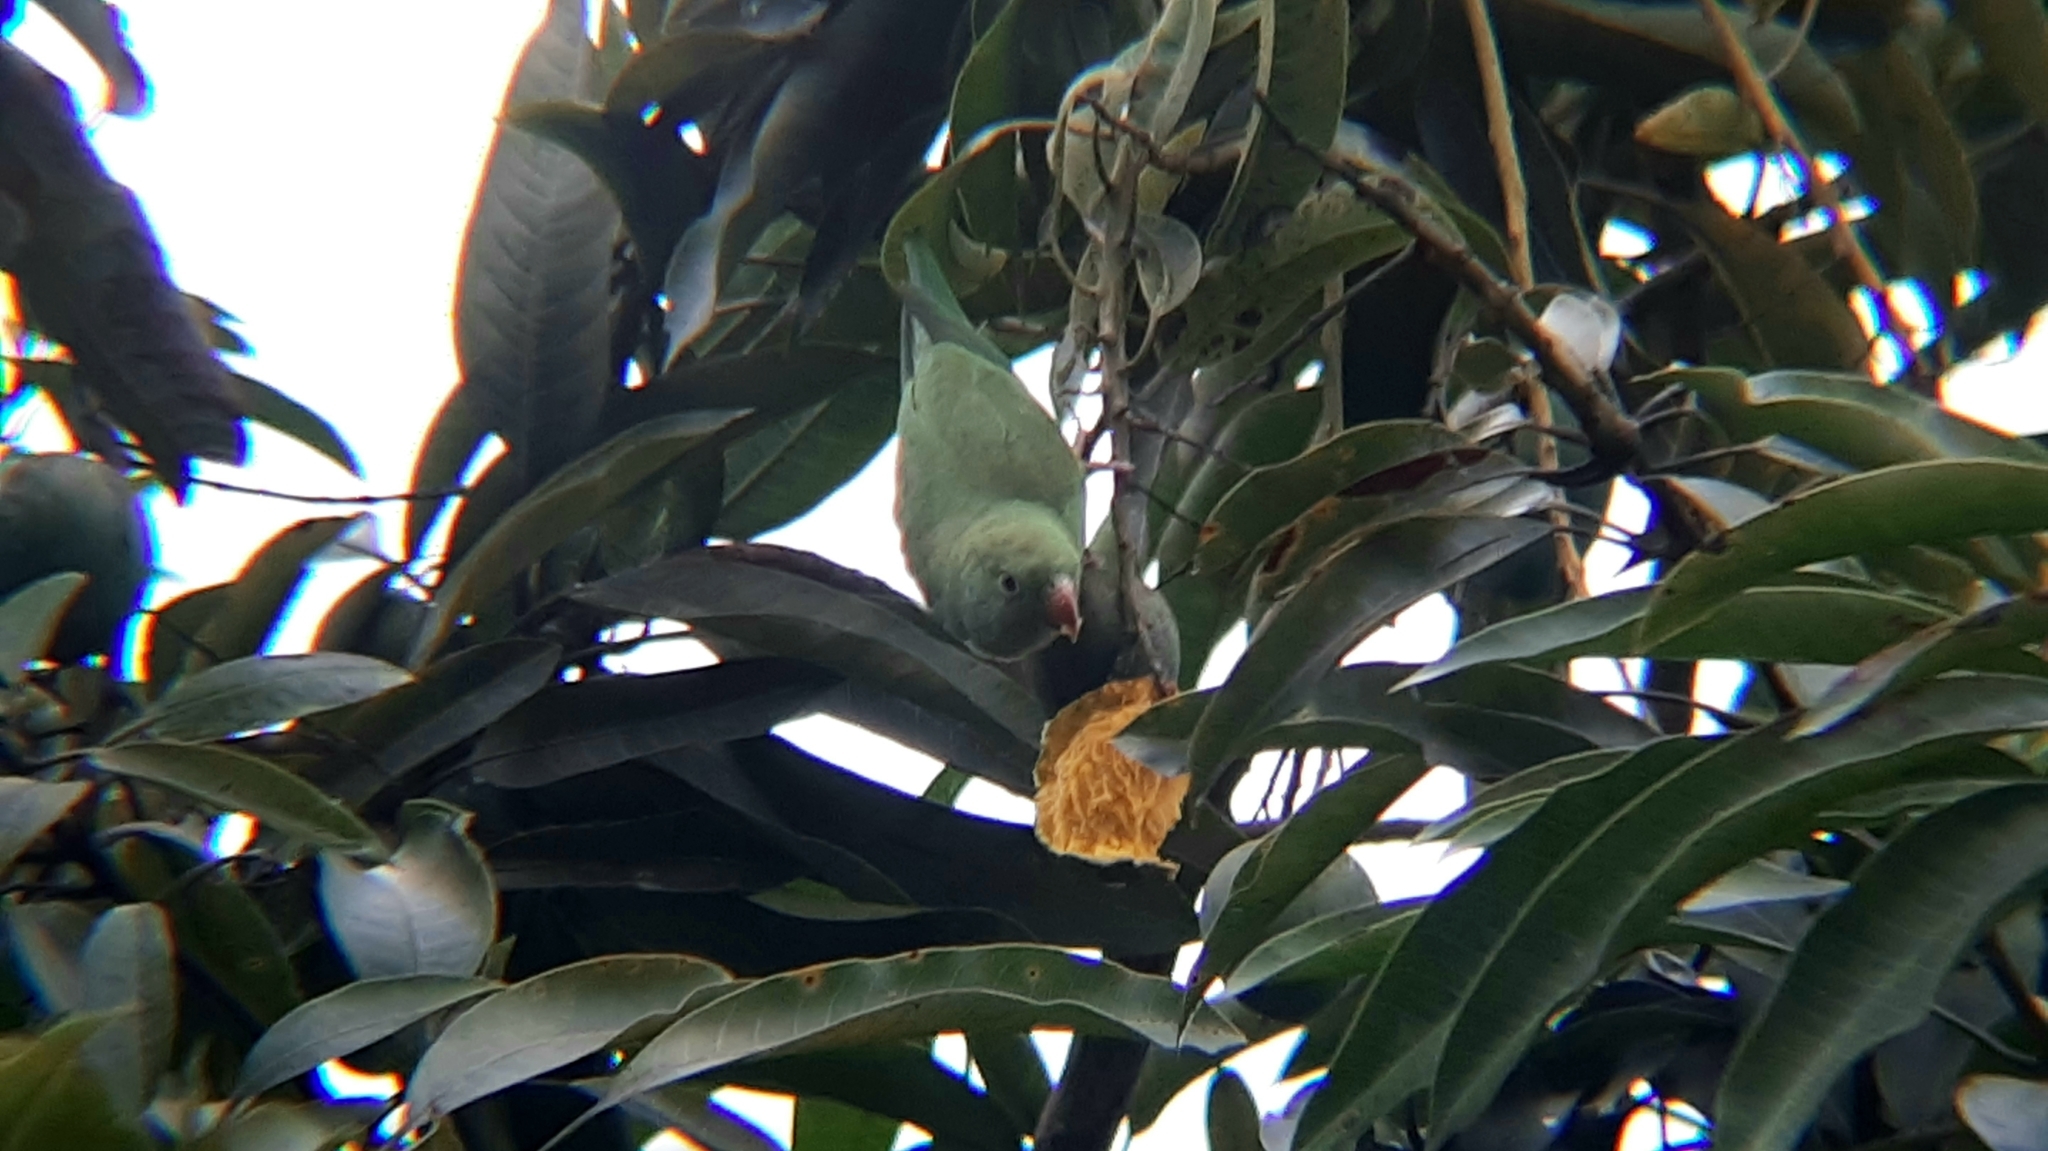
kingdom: Animalia
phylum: Chordata
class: Aves
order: Psittaciformes
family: Psittacidae
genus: Brotogeris
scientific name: Brotogeris chiriri
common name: Yellow-chevroned parakeet
